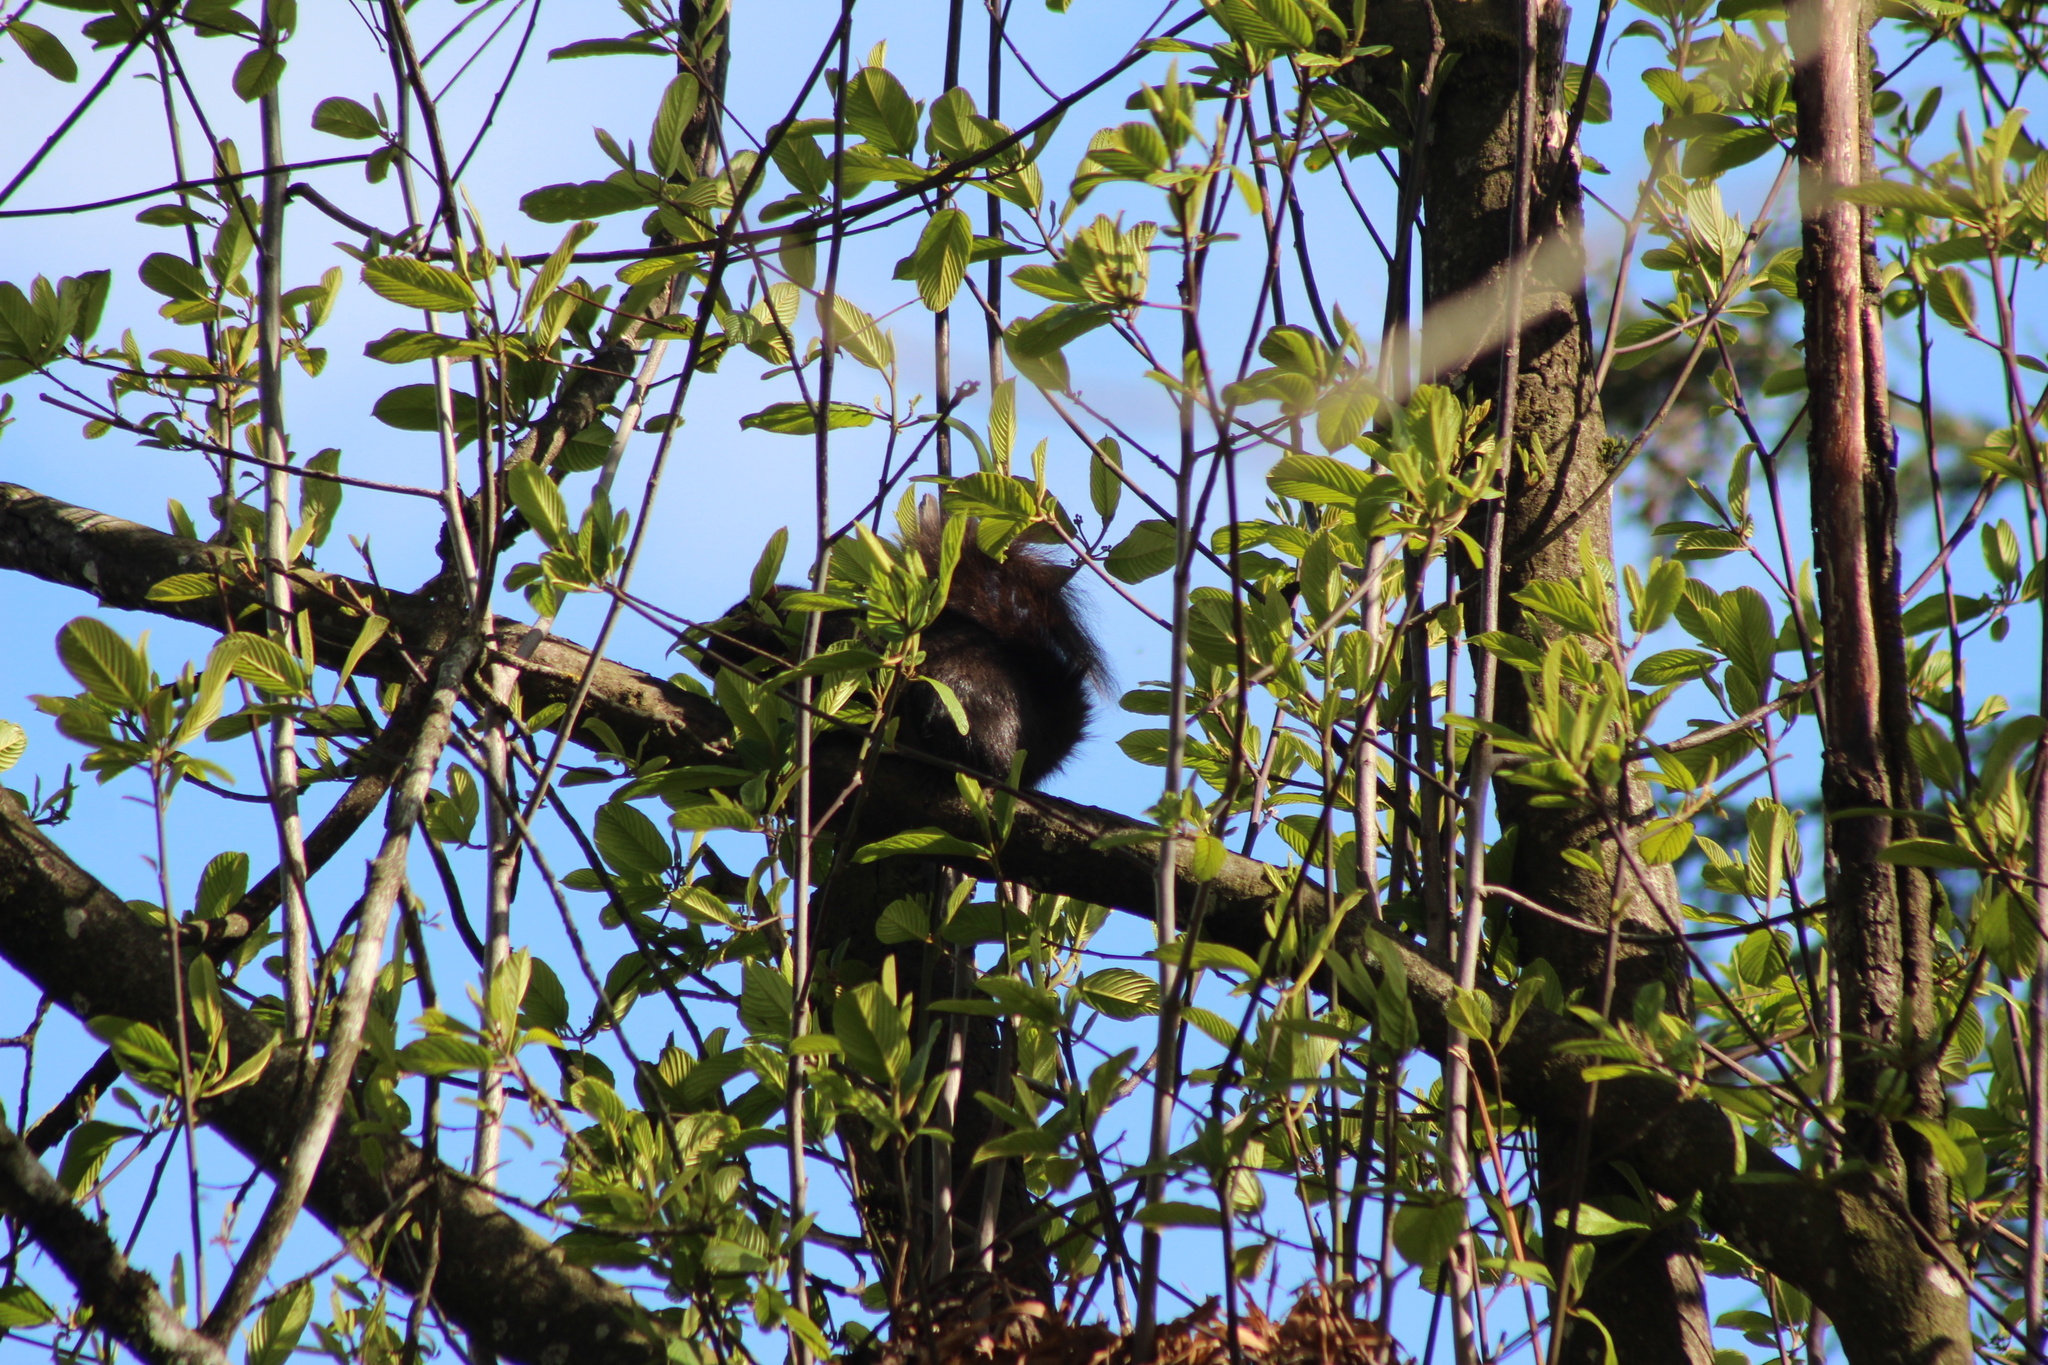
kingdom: Animalia
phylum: Chordata
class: Mammalia
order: Rodentia
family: Sciuridae
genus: Sciurus
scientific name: Sciurus carolinensis
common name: Eastern gray squirrel
